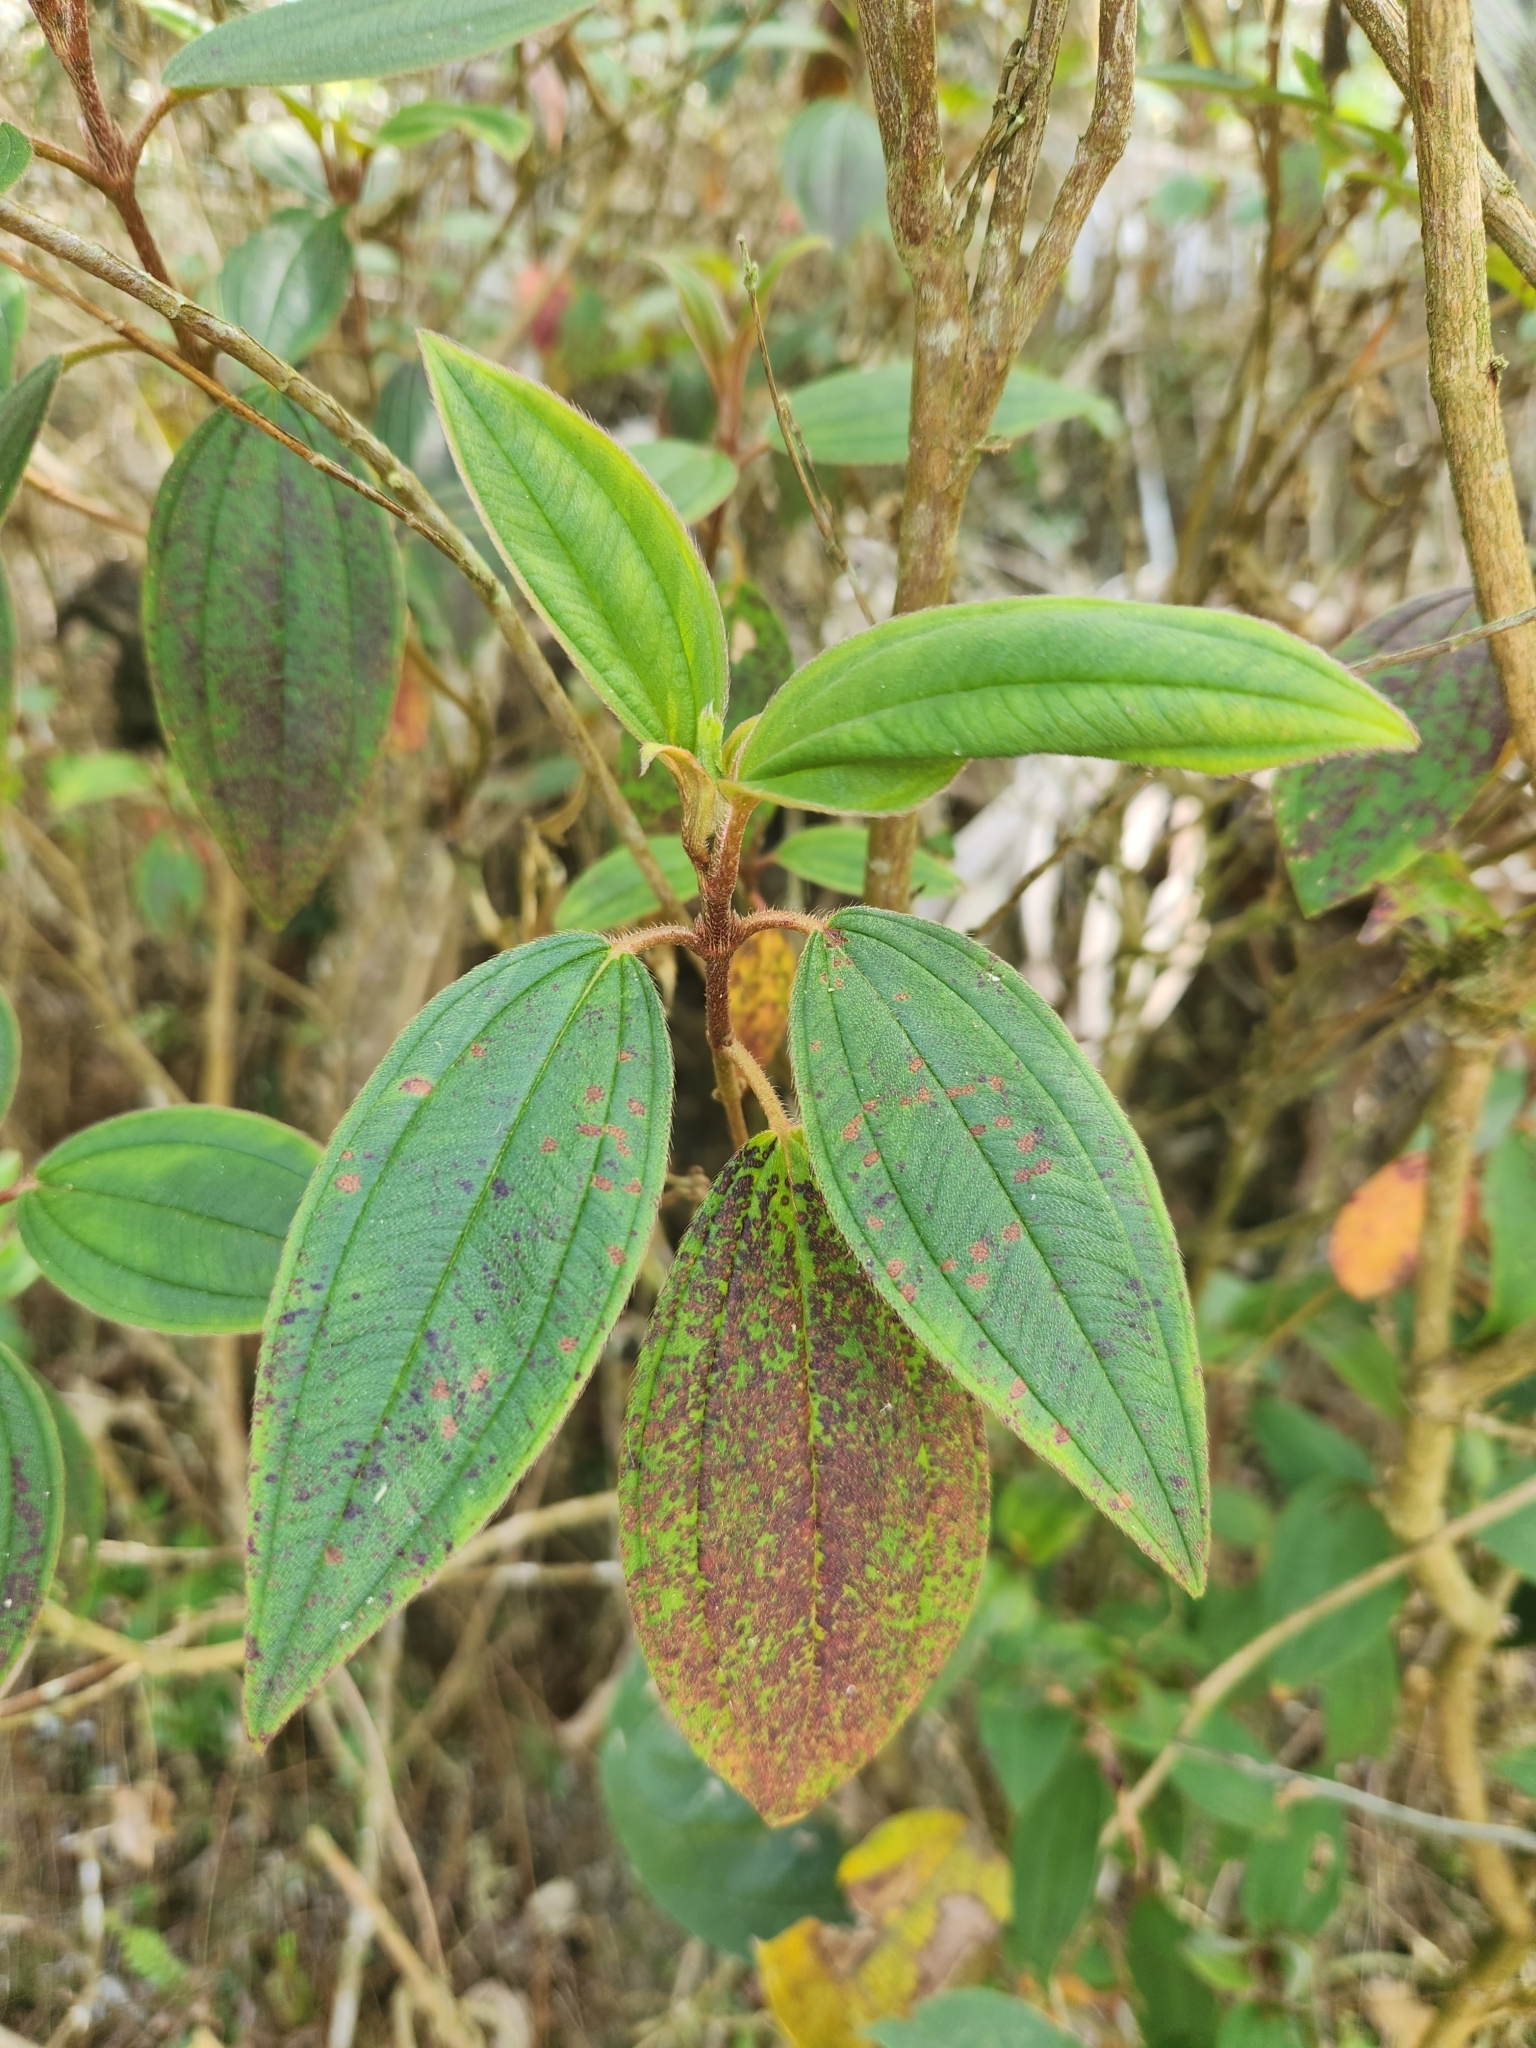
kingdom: Plantae
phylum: Tracheophyta
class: Magnoliopsida
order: Myrtales
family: Melastomataceae
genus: Melastoma
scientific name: Melastoma malabathricum
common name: Indian-rhododendron
